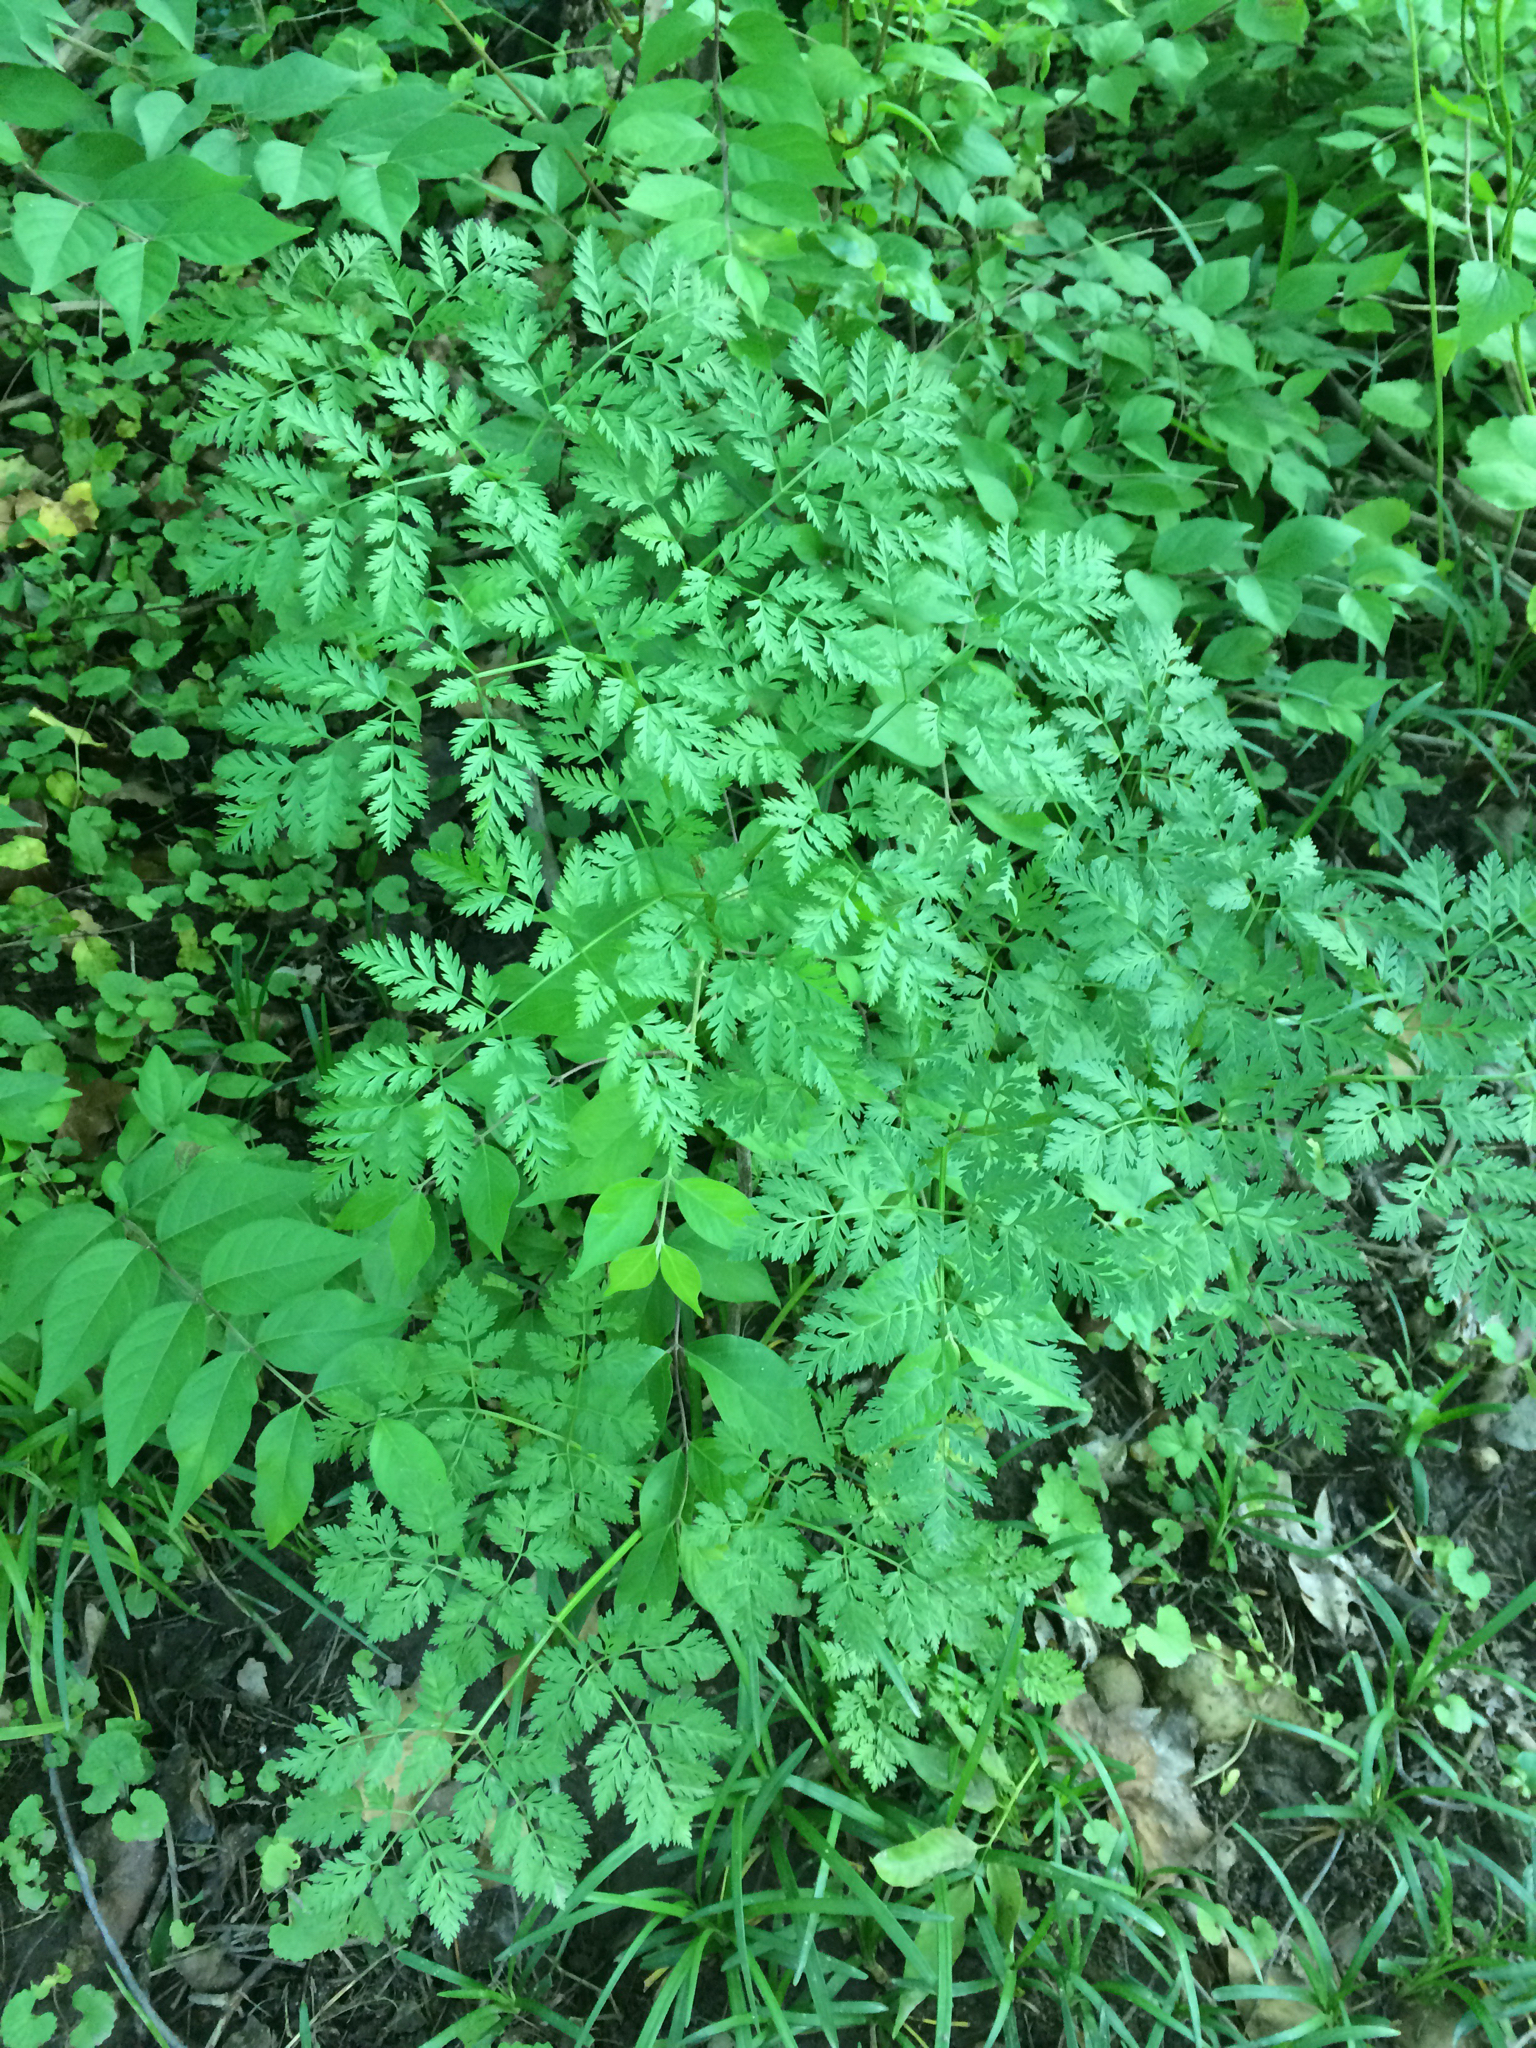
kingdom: Plantae
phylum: Tracheophyta
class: Magnoliopsida
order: Apiales
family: Apiaceae
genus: Conium
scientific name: Conium maculatum
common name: Hemlock
